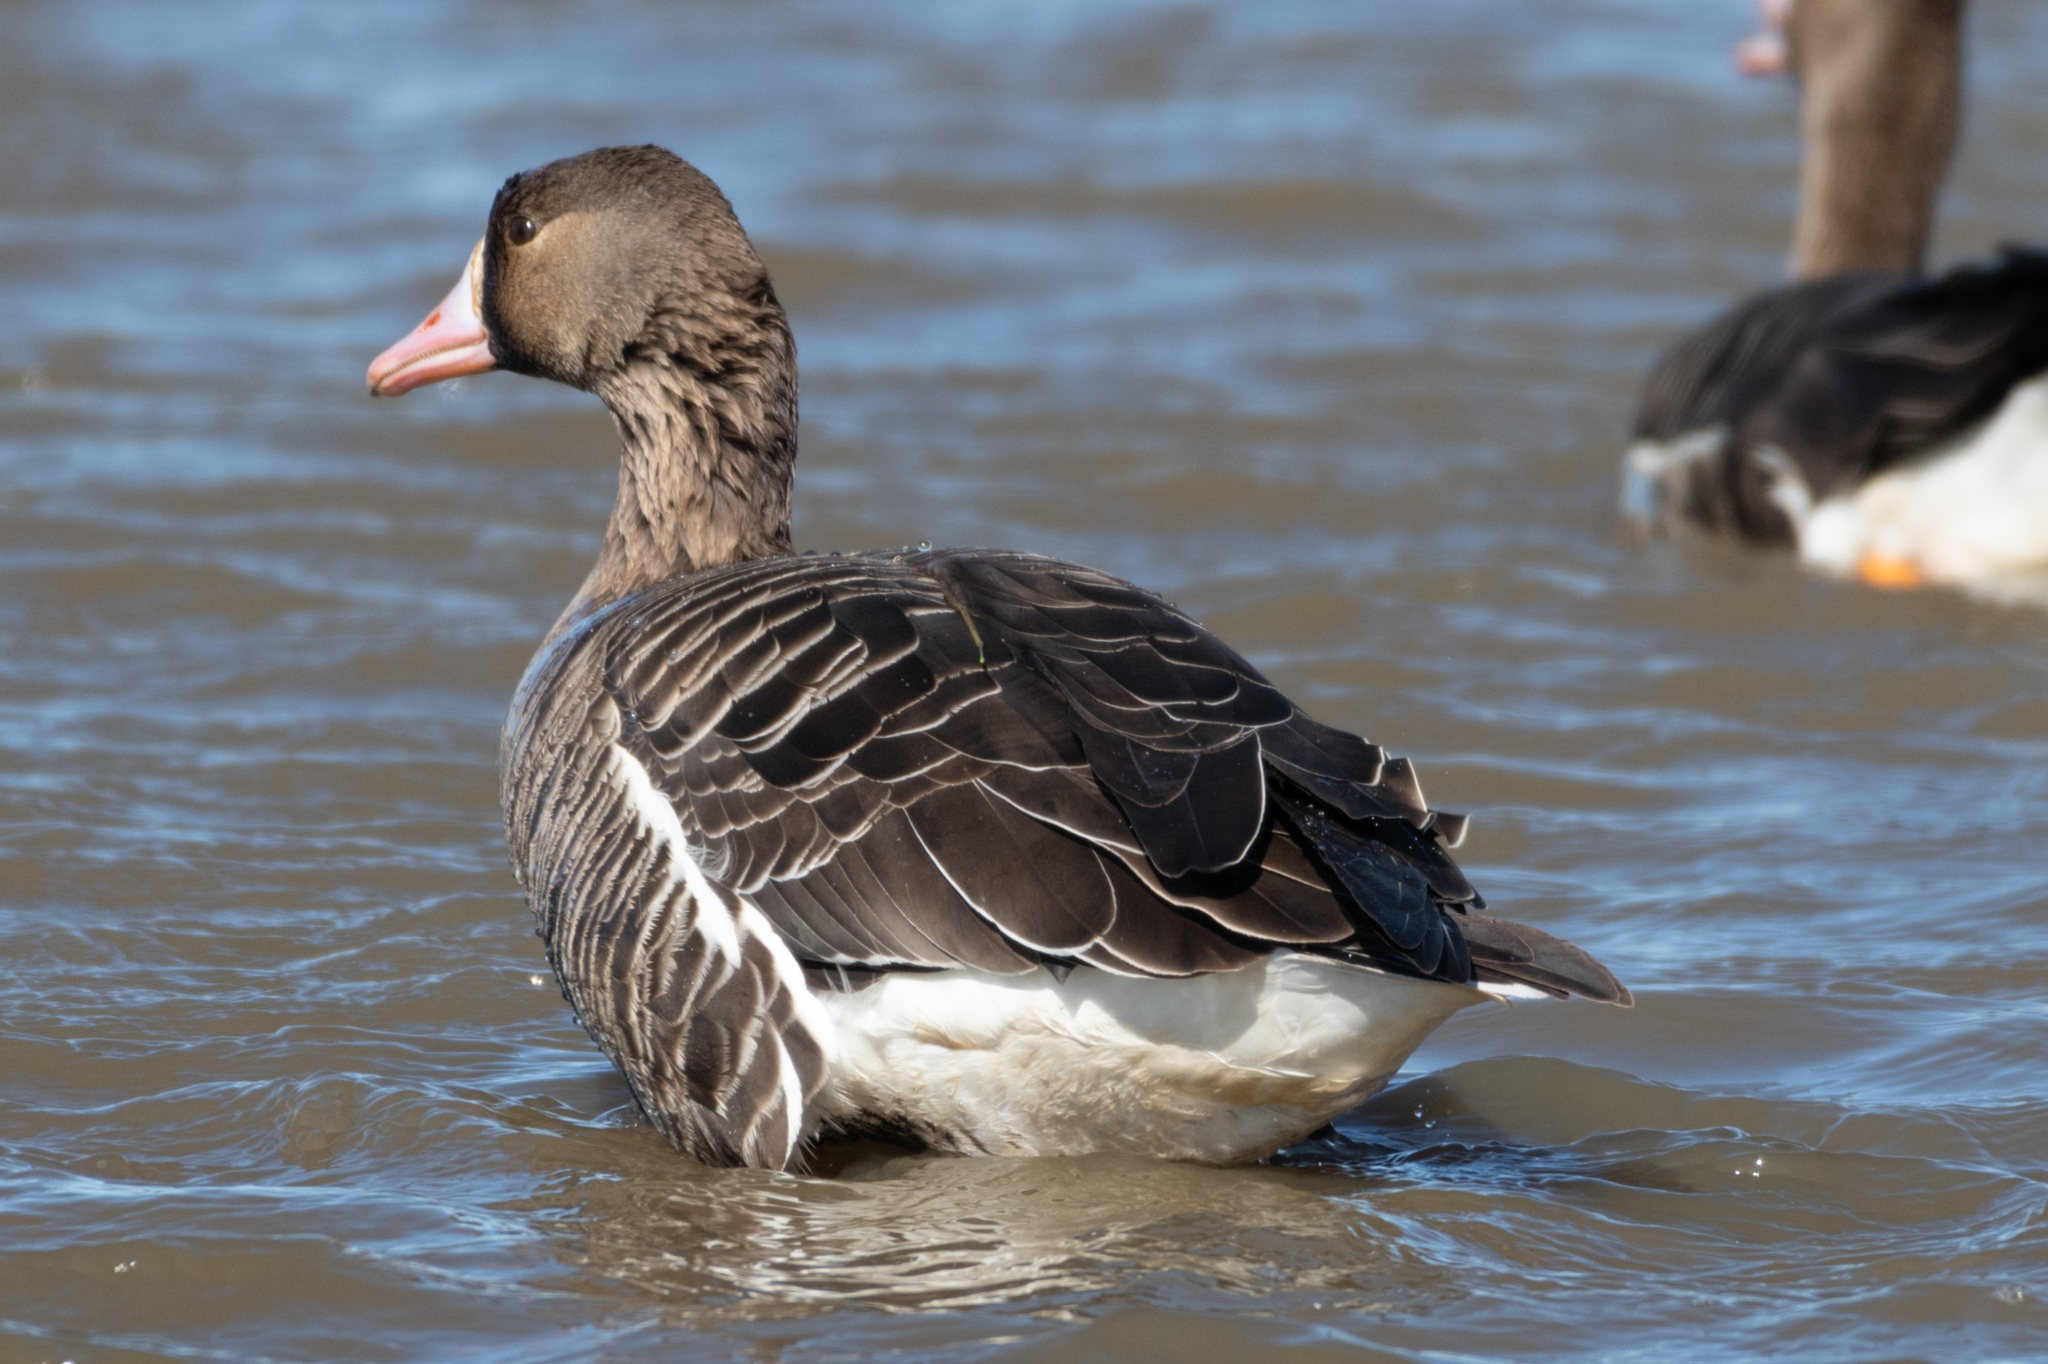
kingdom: Animalia
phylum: Chordata
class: Aves
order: Anseriformes
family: Anatidae
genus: Anser
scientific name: Anser albifrons
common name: Greater white-fronted goose
